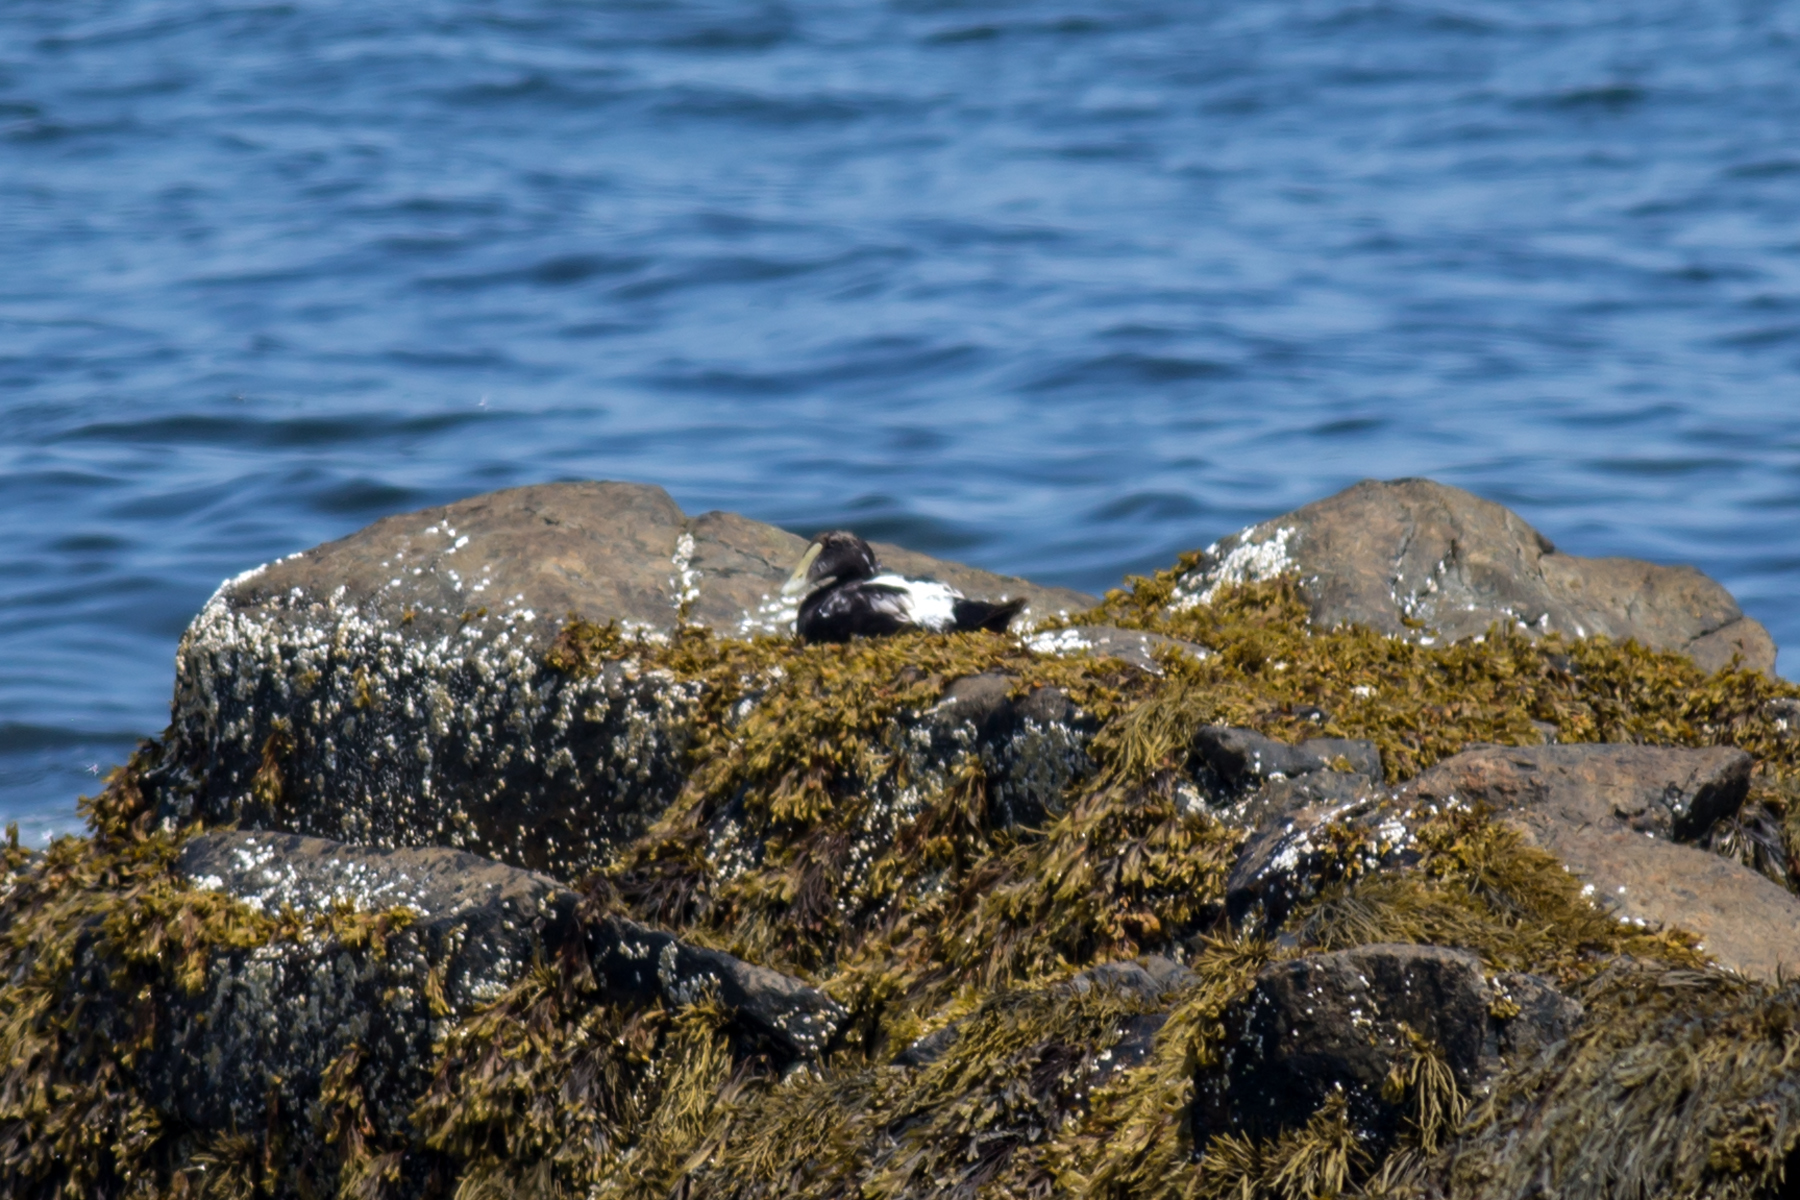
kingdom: Animalia
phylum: Chordata
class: Aves
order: Anseriformes
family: Anatidae
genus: Somateria
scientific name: Somateria mollissima
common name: Common eider
